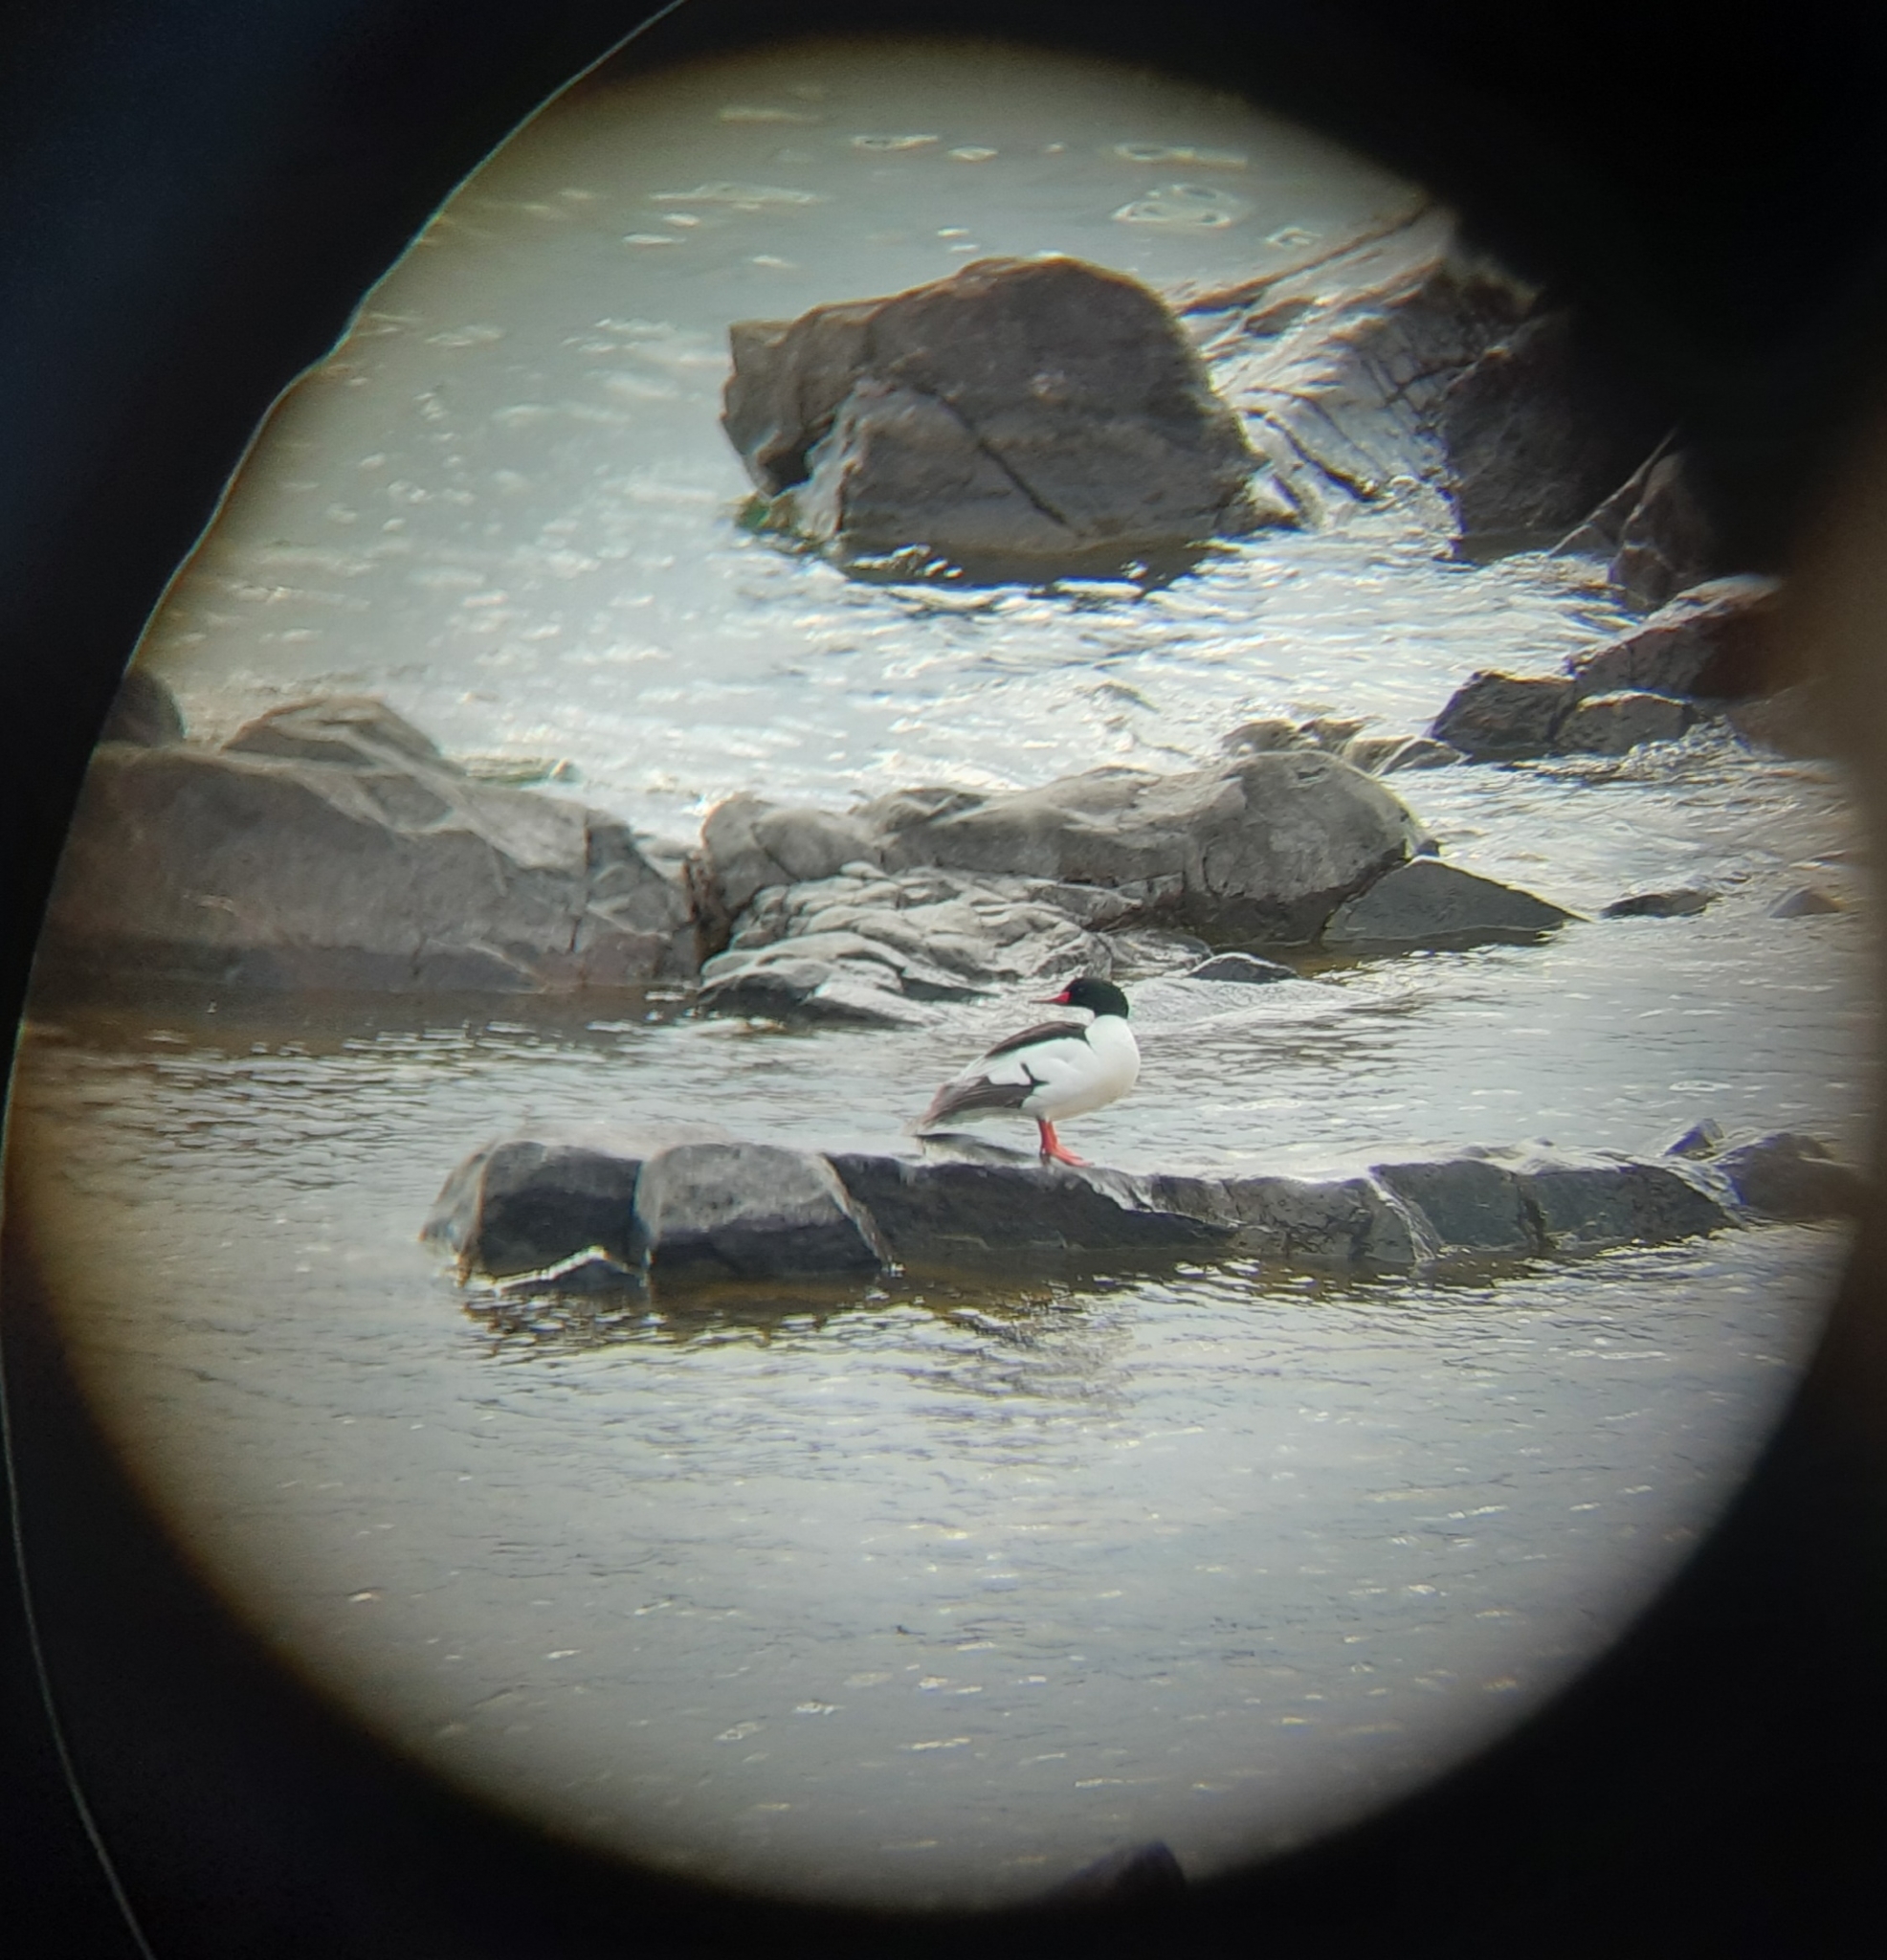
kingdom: Animalia
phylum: Chordata
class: Aves
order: Anseriformes
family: Anatidae
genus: Mergus
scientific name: Mergus merganser
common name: Common merganser
